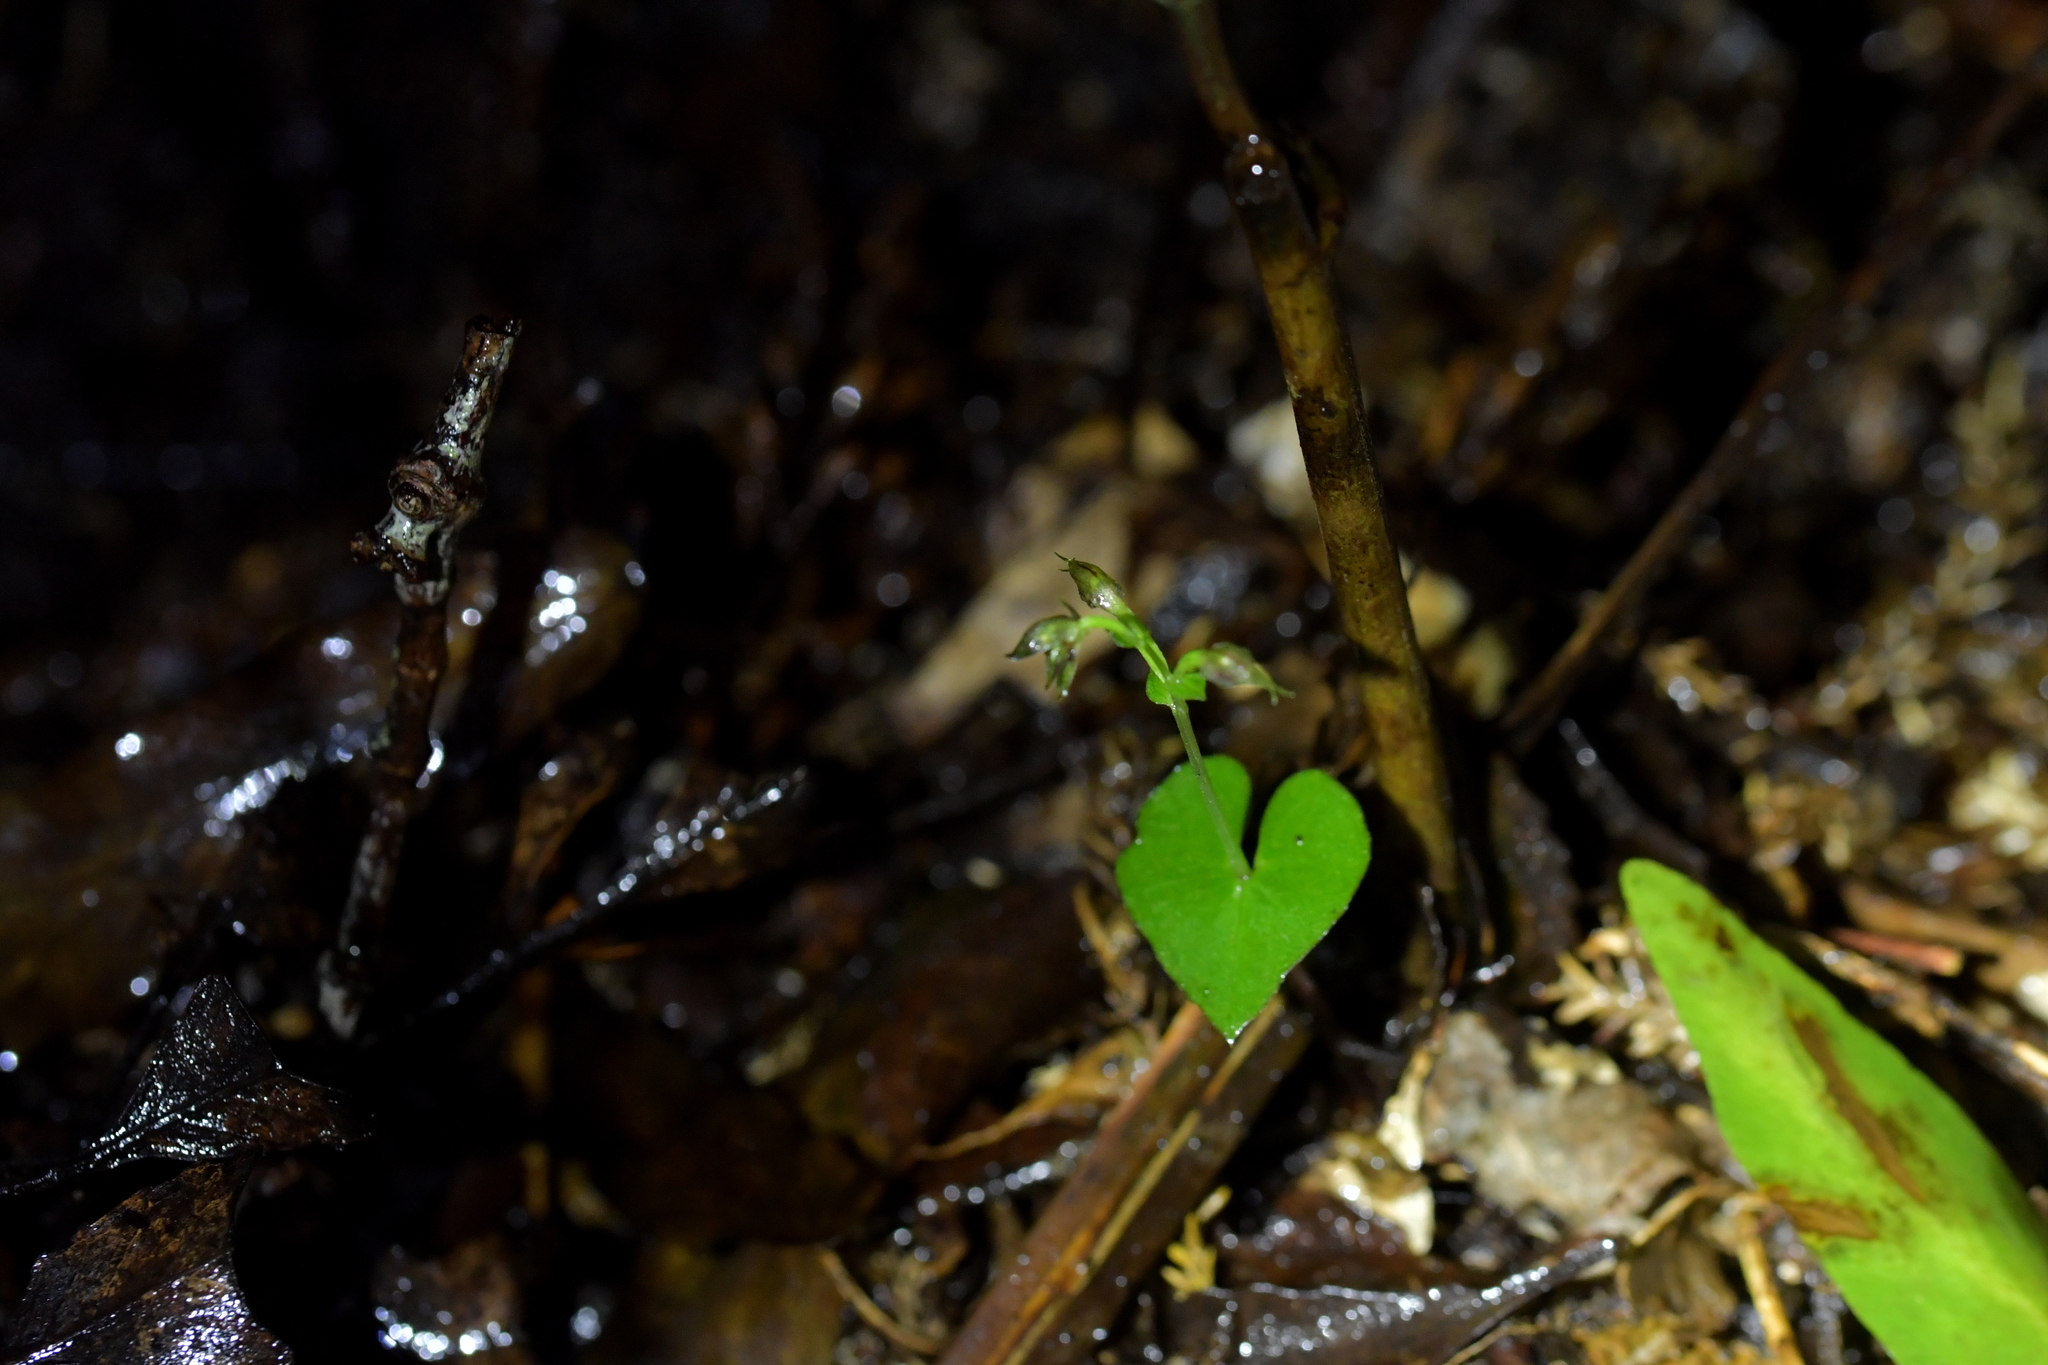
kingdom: Plantae
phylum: Tracheophyta
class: Liliopsida
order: Asparagales
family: Orchidaceae
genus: Acianthus
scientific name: Acianthus sinclairii
